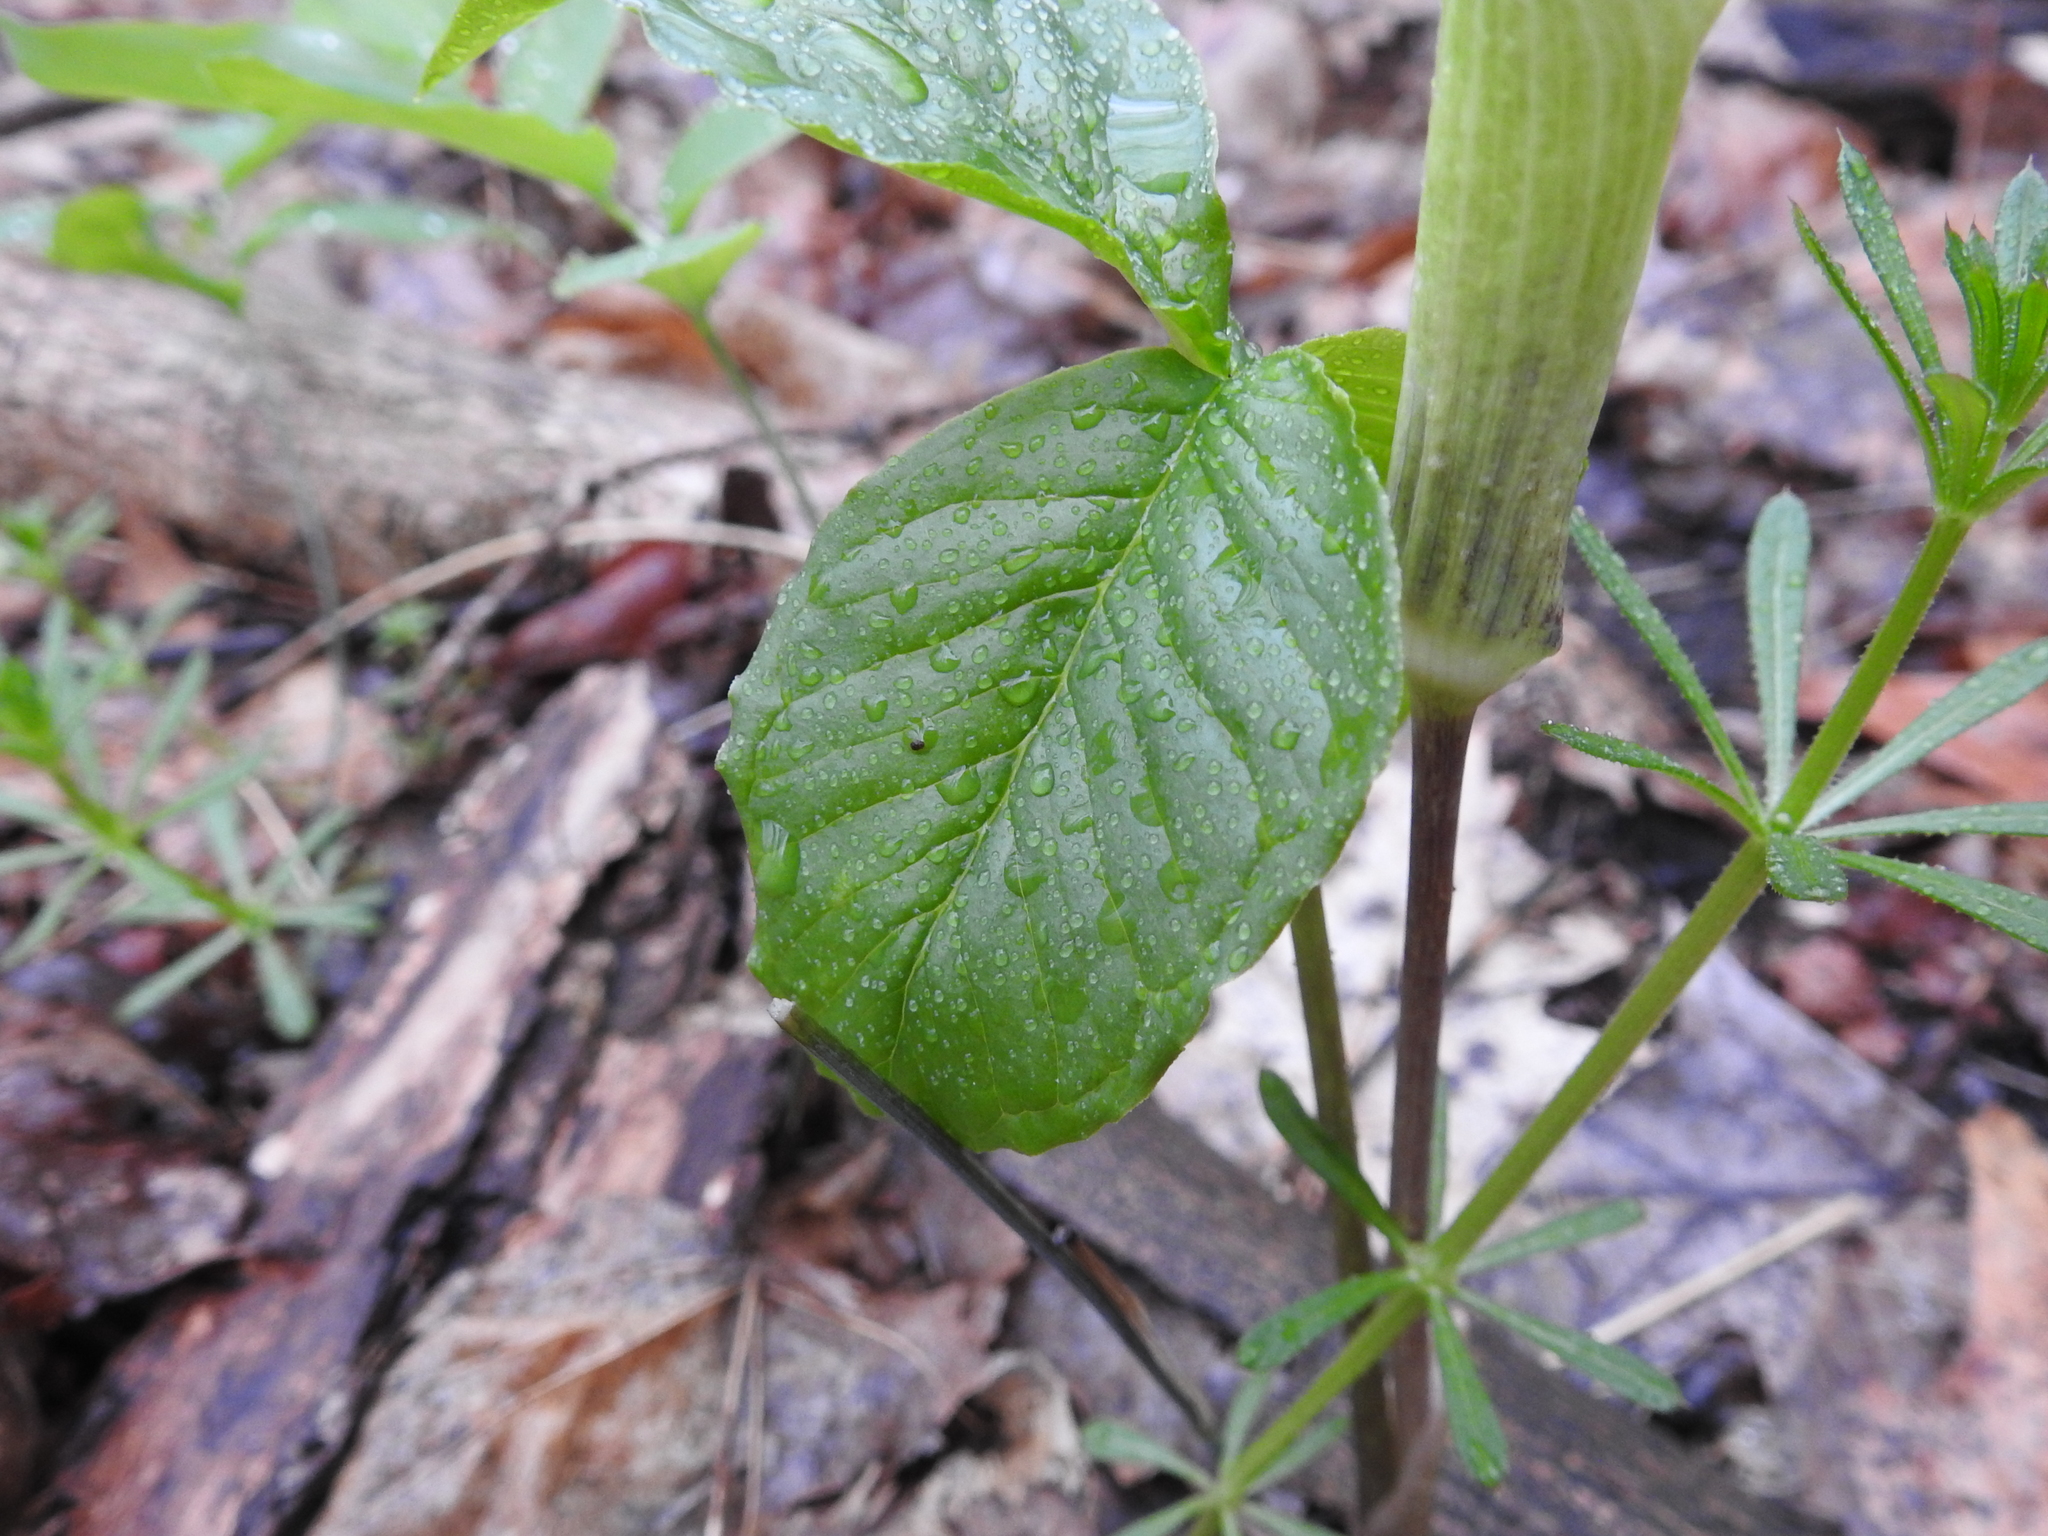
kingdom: Plantae
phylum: Tracheophyta
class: Liliopsida
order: Alismatales
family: Araceae
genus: Arisaema
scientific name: Arisaema triphyllum
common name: Jack-in-the-pulpit
